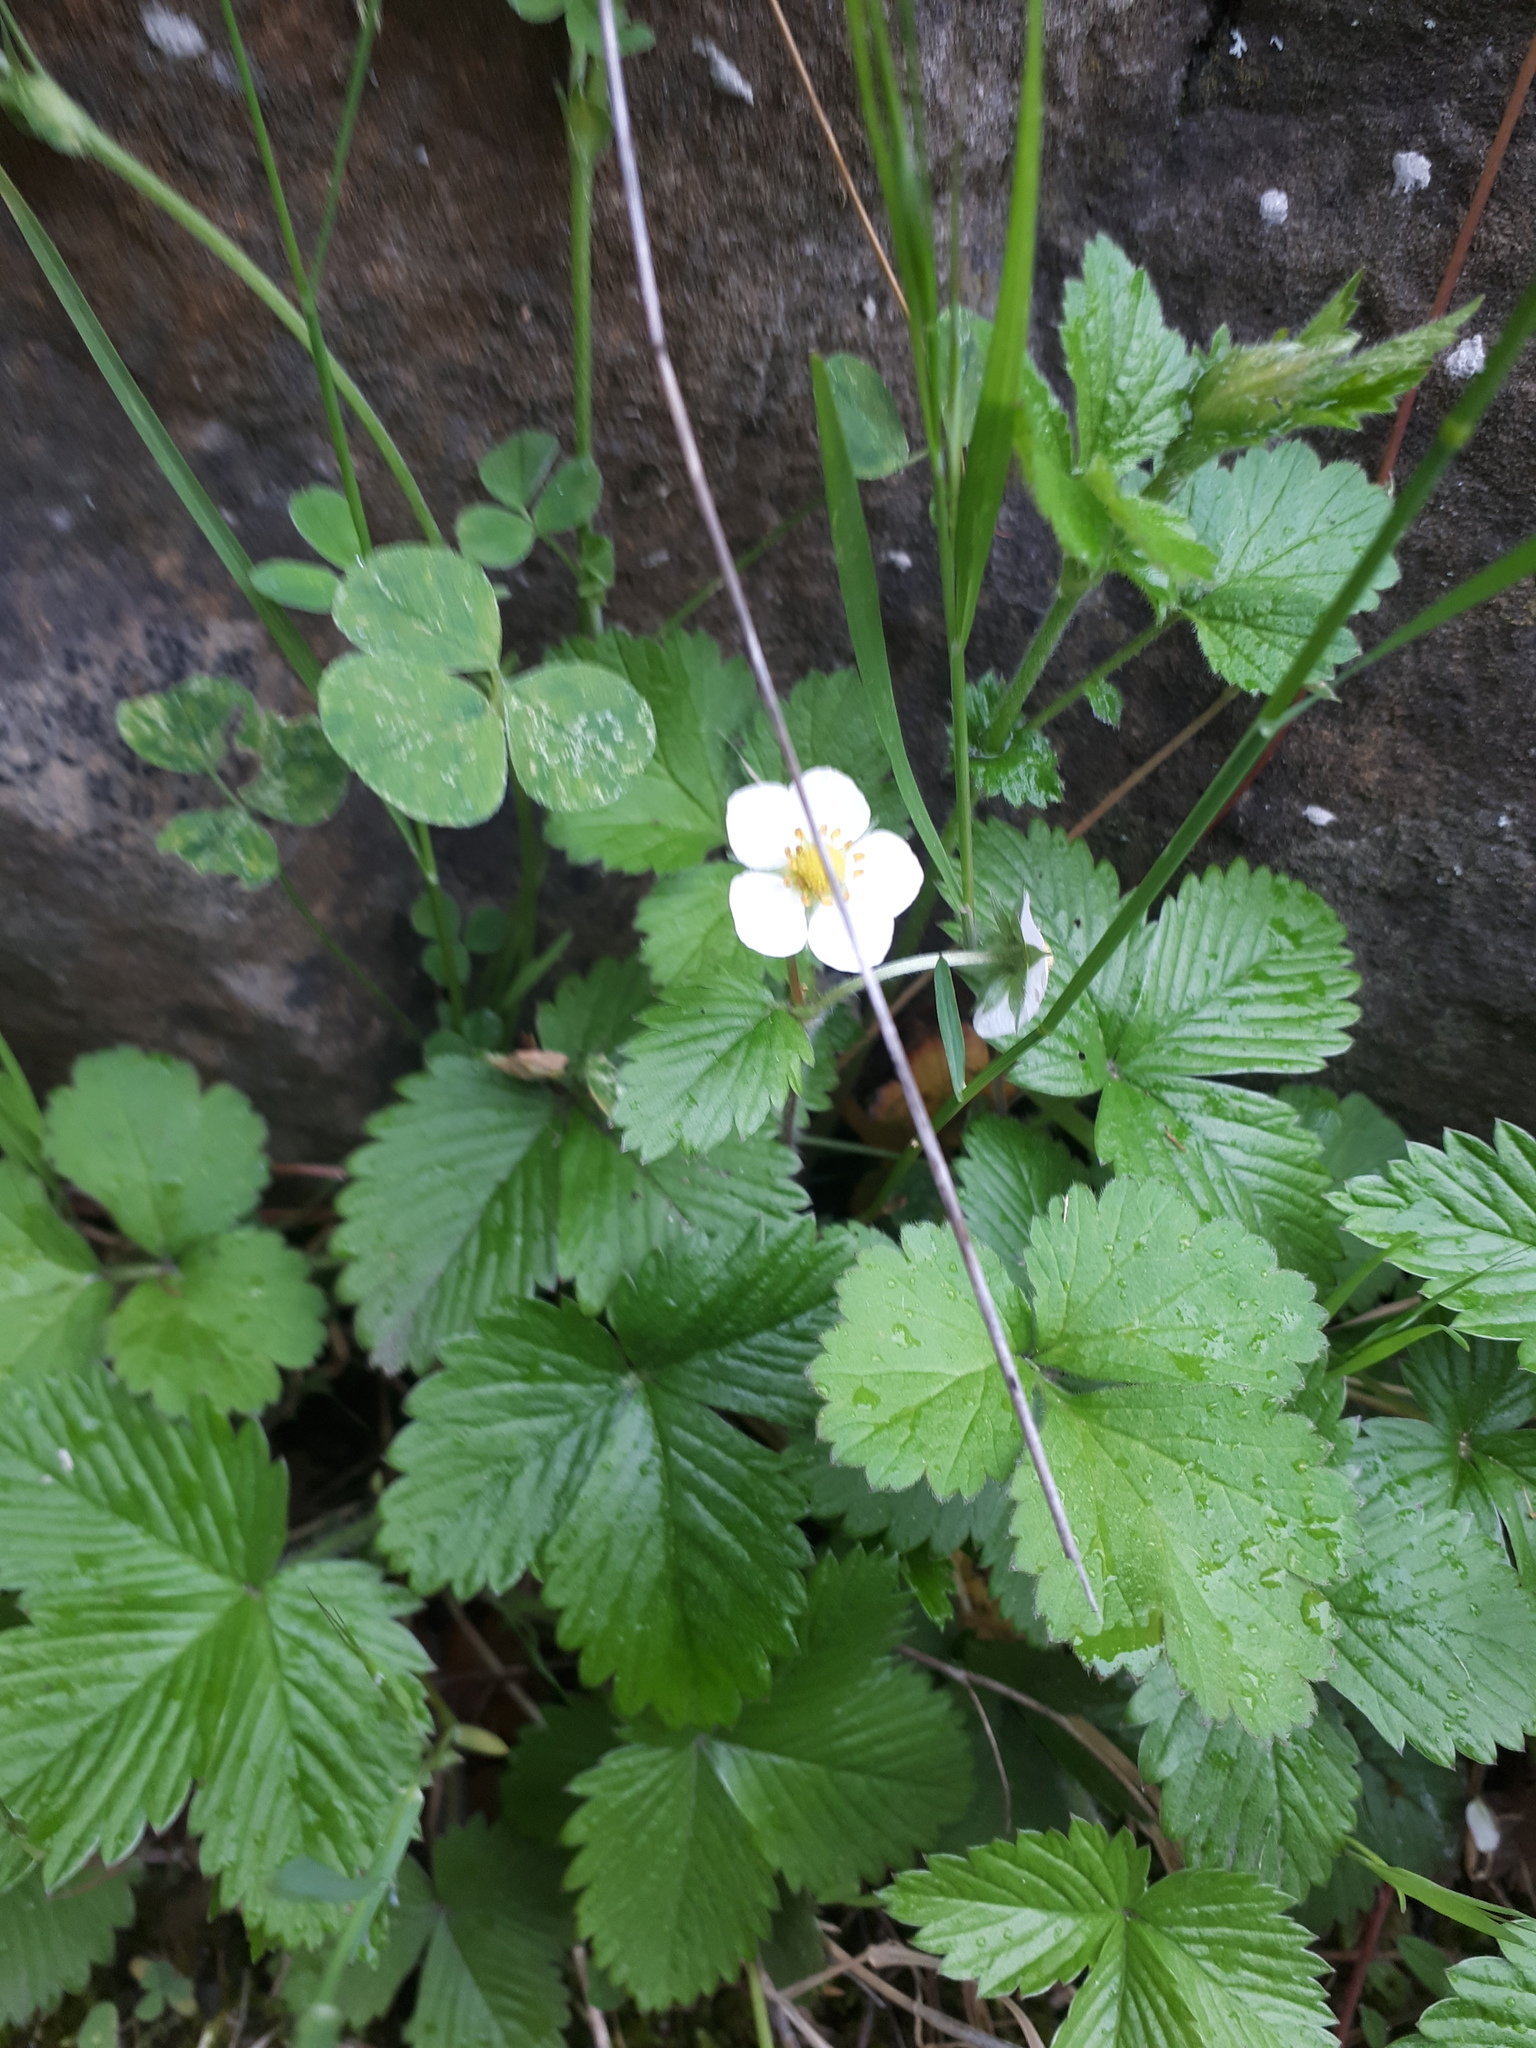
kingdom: Plantae
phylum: Tracheophyta
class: Magnoliopsida
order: Rosales
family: Rosaceae
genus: Fragaria
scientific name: Fragaria vesca
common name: Wild strawberry
